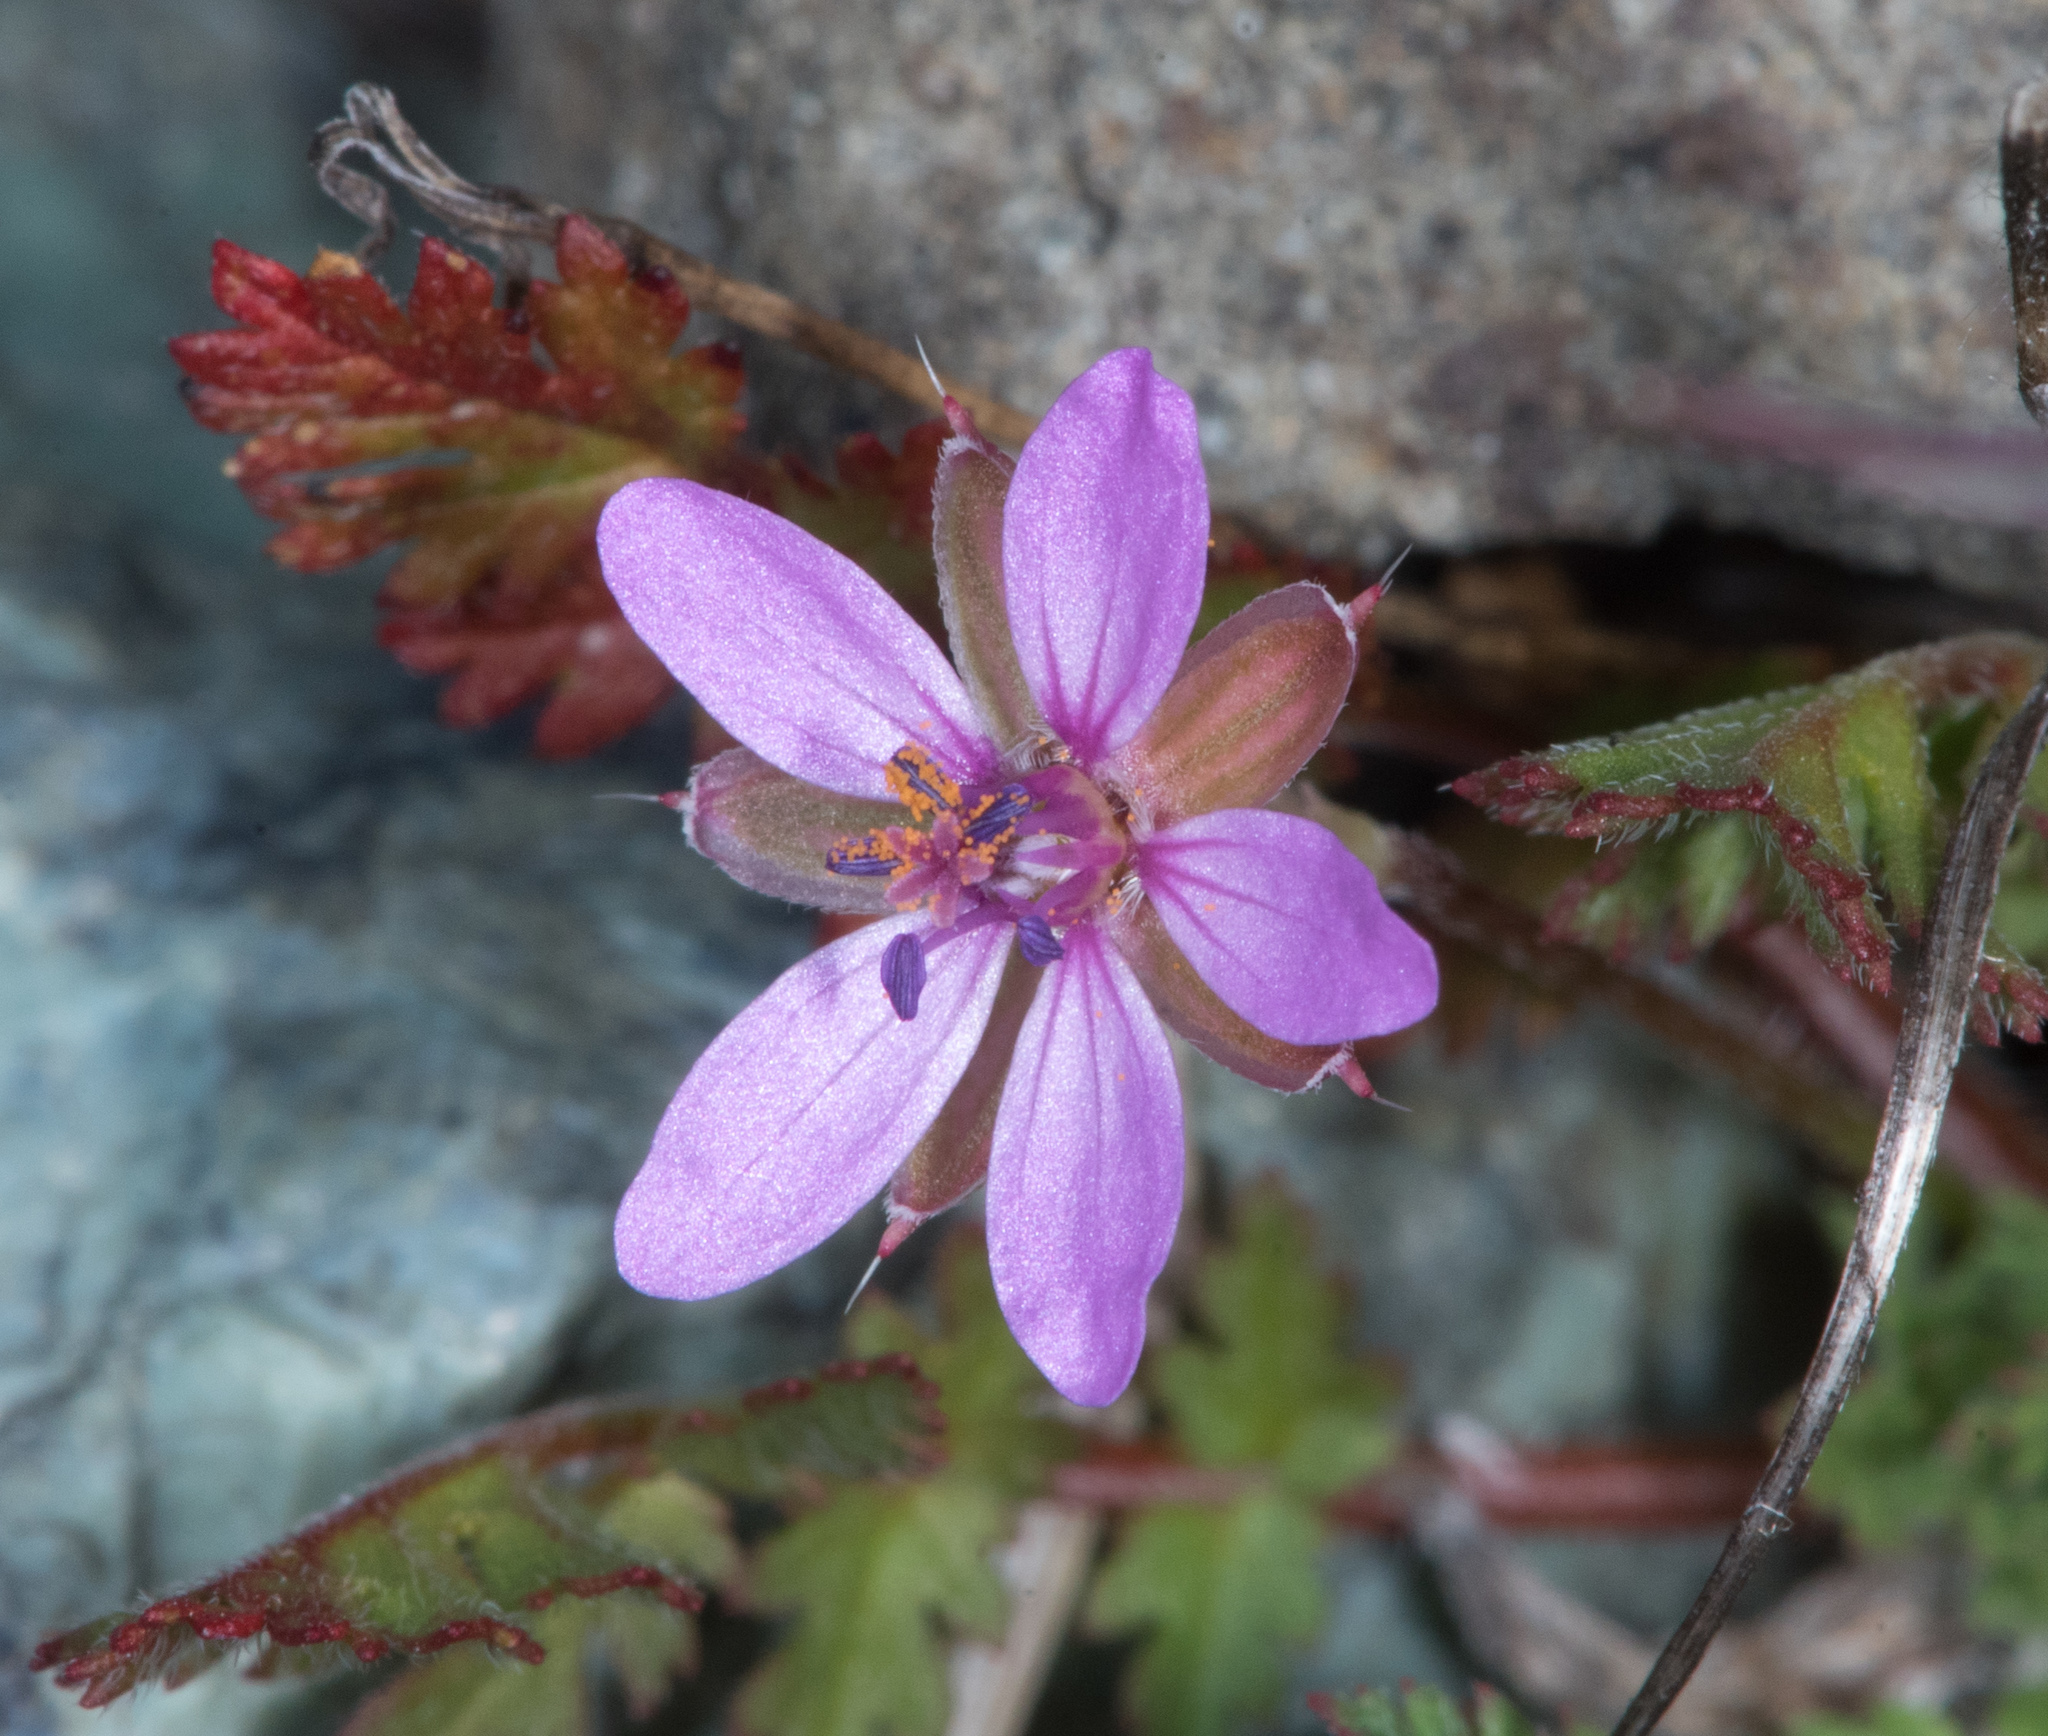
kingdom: Plantae
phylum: Tracheophyta
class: Magnoliopsida
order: Geraniales
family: Geraniaceae
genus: Erodium
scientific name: Erodium cicutarium
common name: Common stork's-bill
